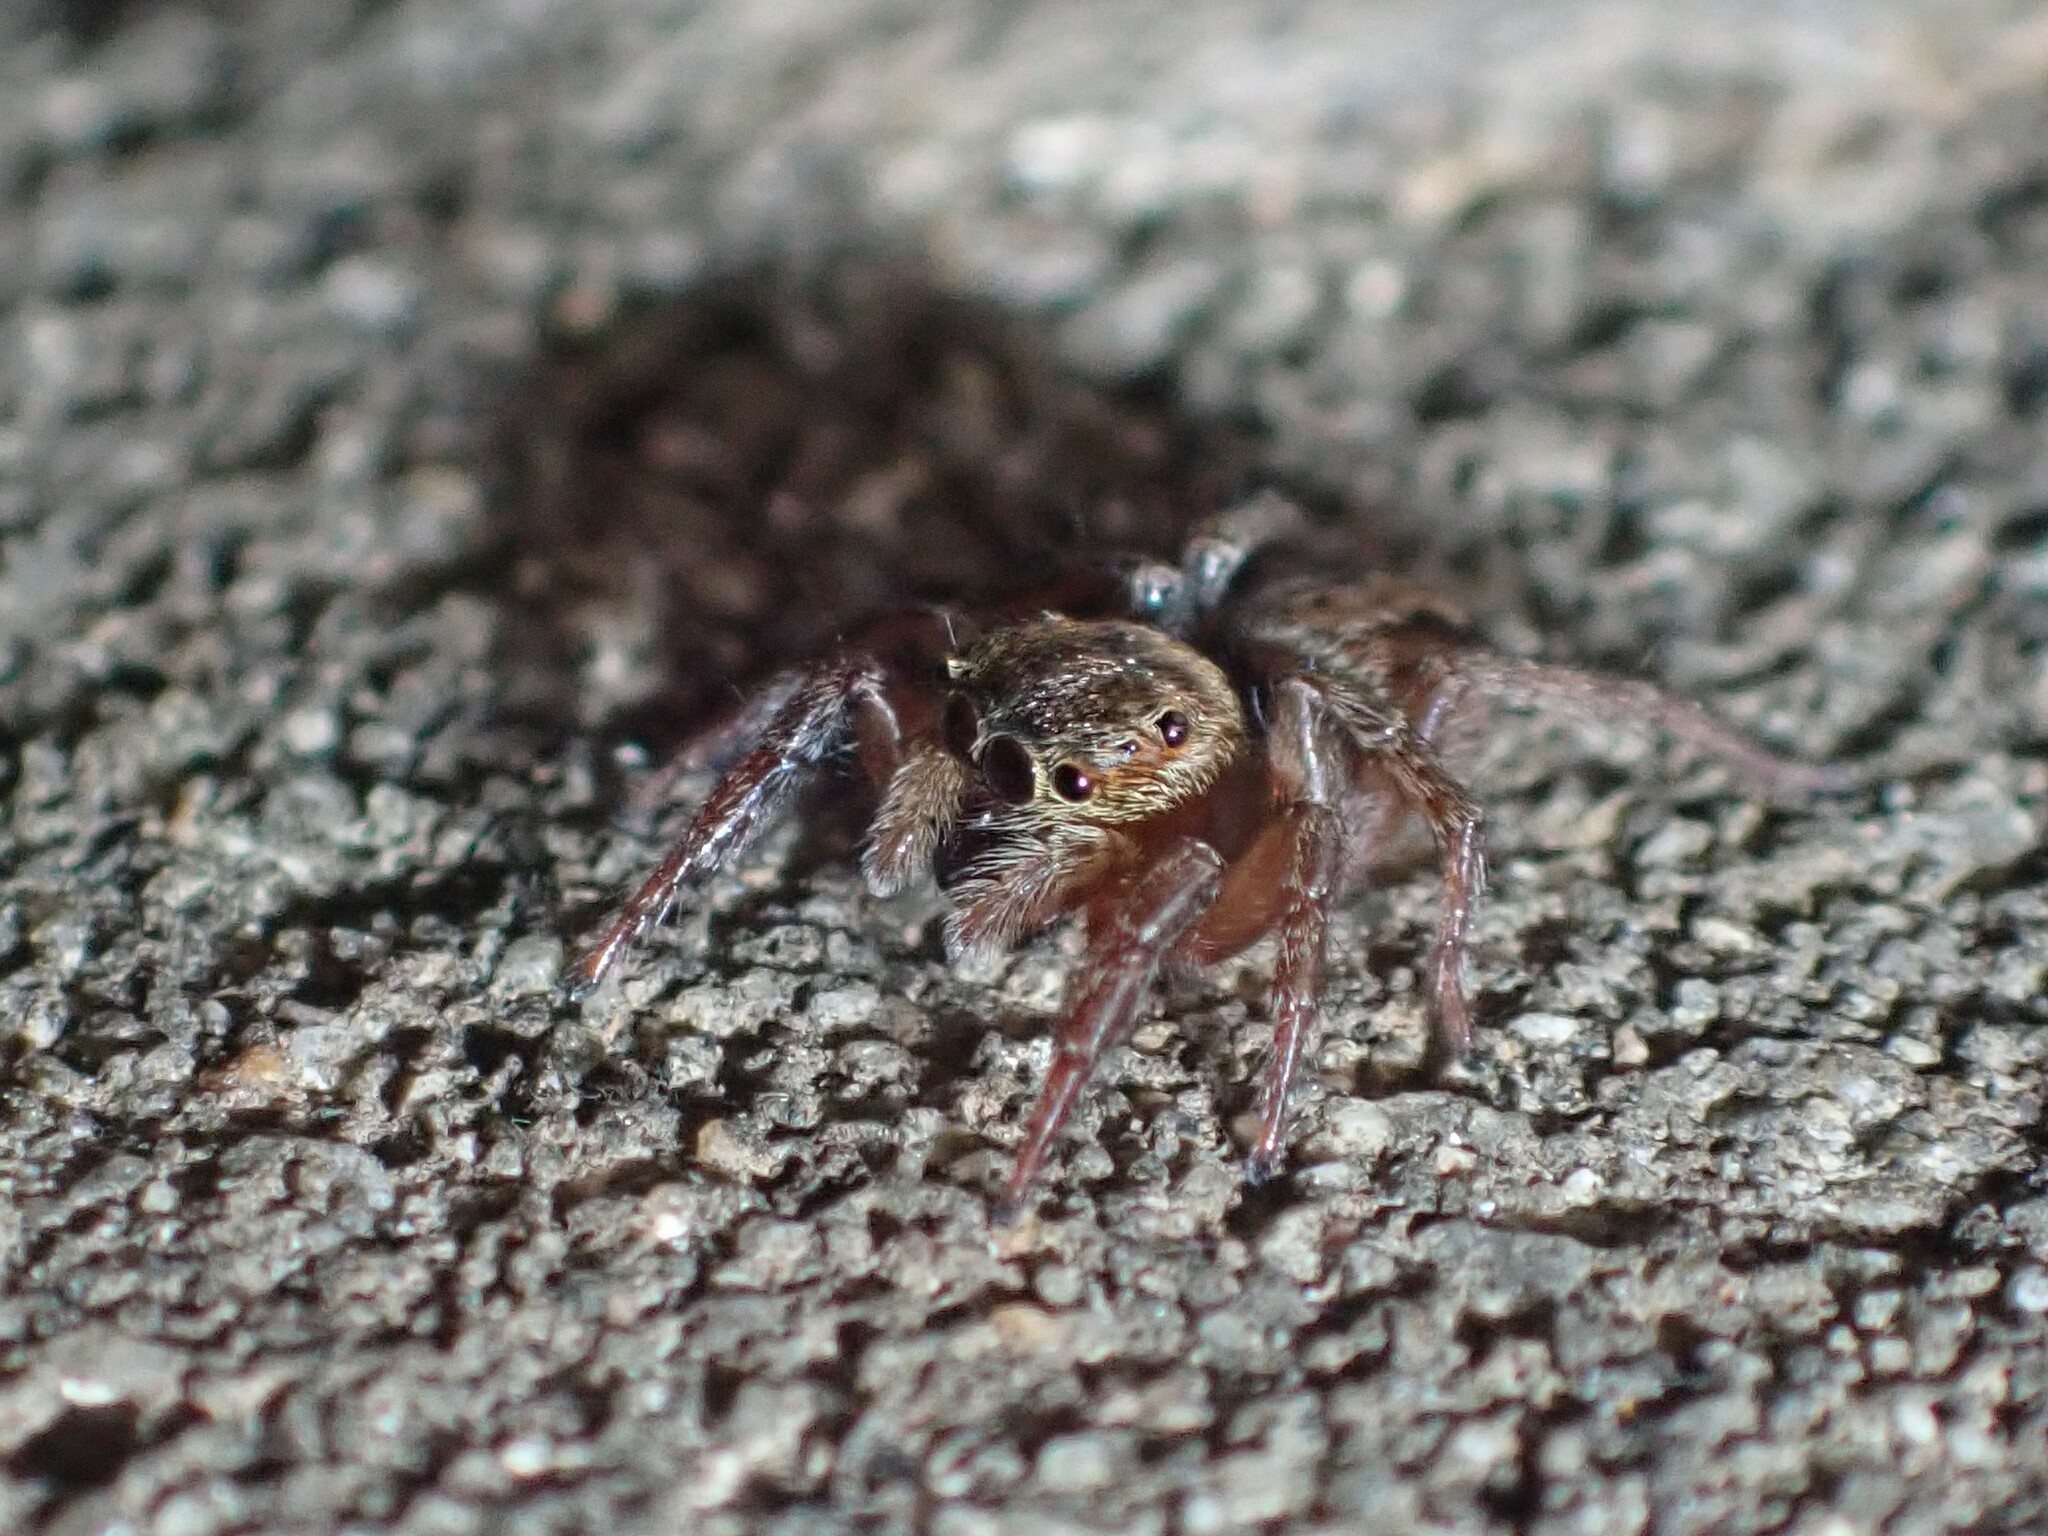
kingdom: Animalia
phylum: Arthropoda
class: Arachnida
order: Araneae
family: Salticidae
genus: Hasarius
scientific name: Hasarius adansoni
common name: Jumping spider
